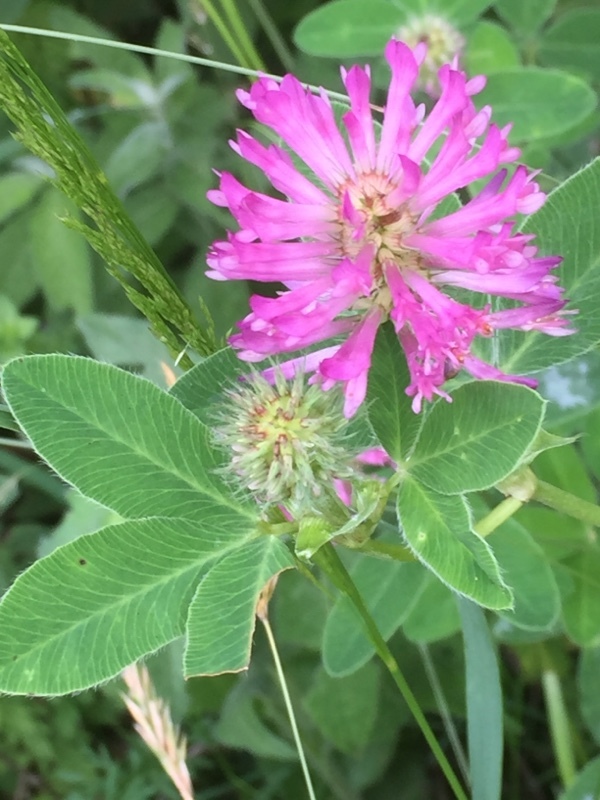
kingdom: Plantae
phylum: Tracheophyta
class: Magnoliopsida
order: Fabales
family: Fabaceae
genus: Trifolium
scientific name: Trifolium medium
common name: Zigzag clover
